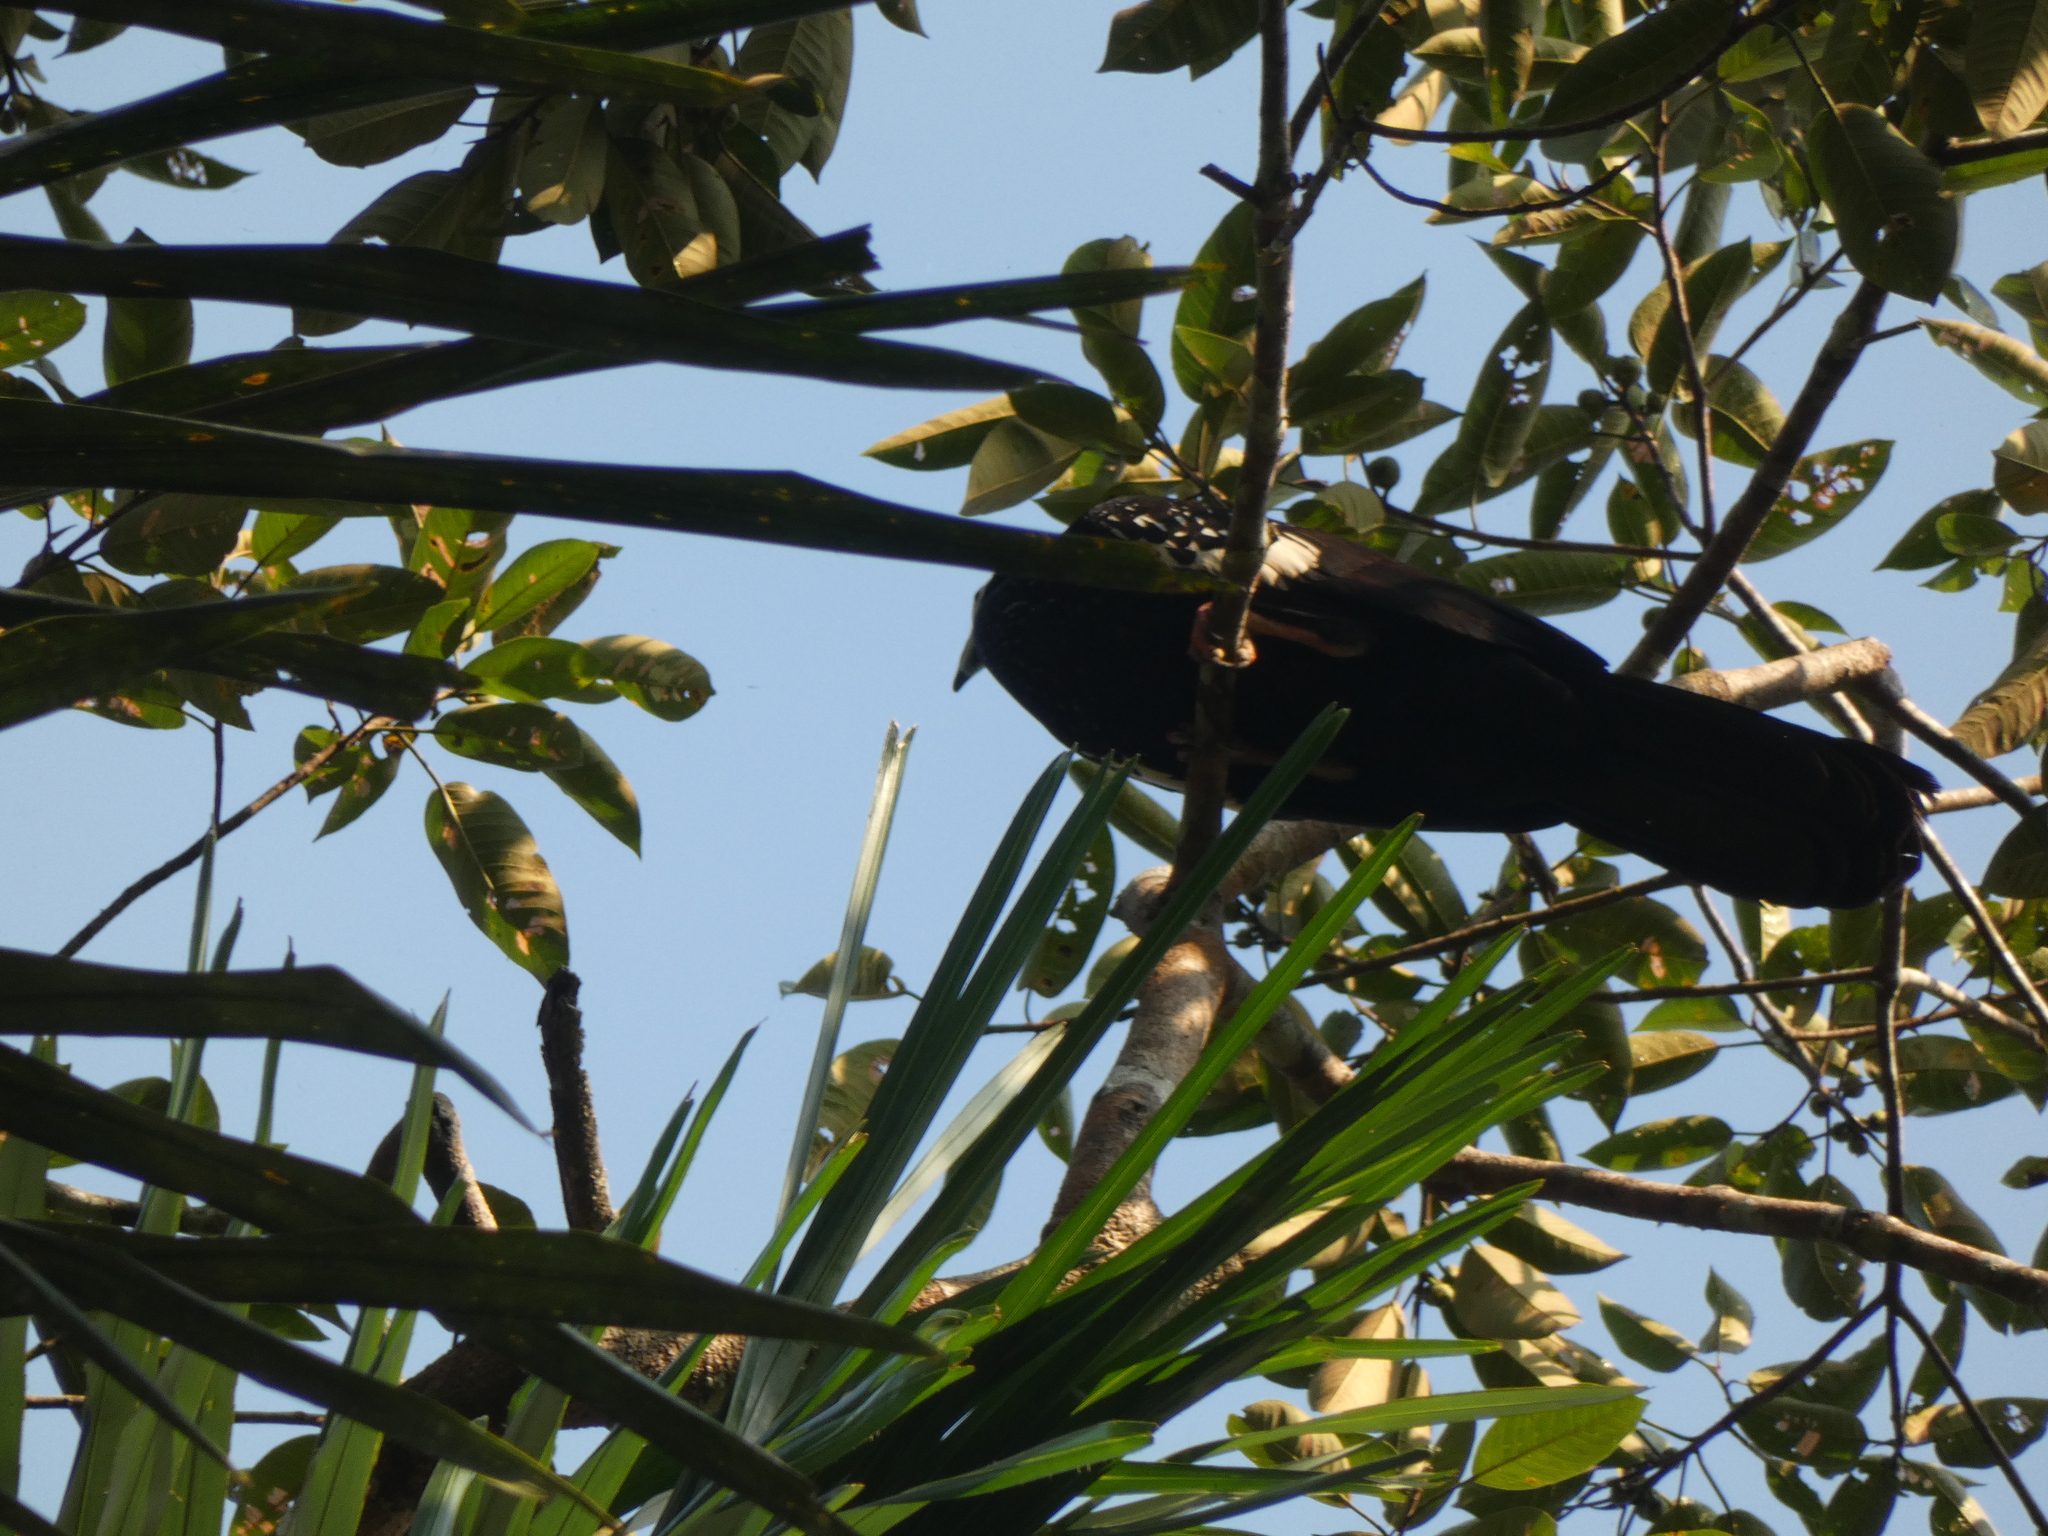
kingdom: Animalia
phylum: Chordata
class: Aves
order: Galliformes
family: Cracidae
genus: Pipile
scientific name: Pipile cumanensis
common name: Blue-throated piping-guan
